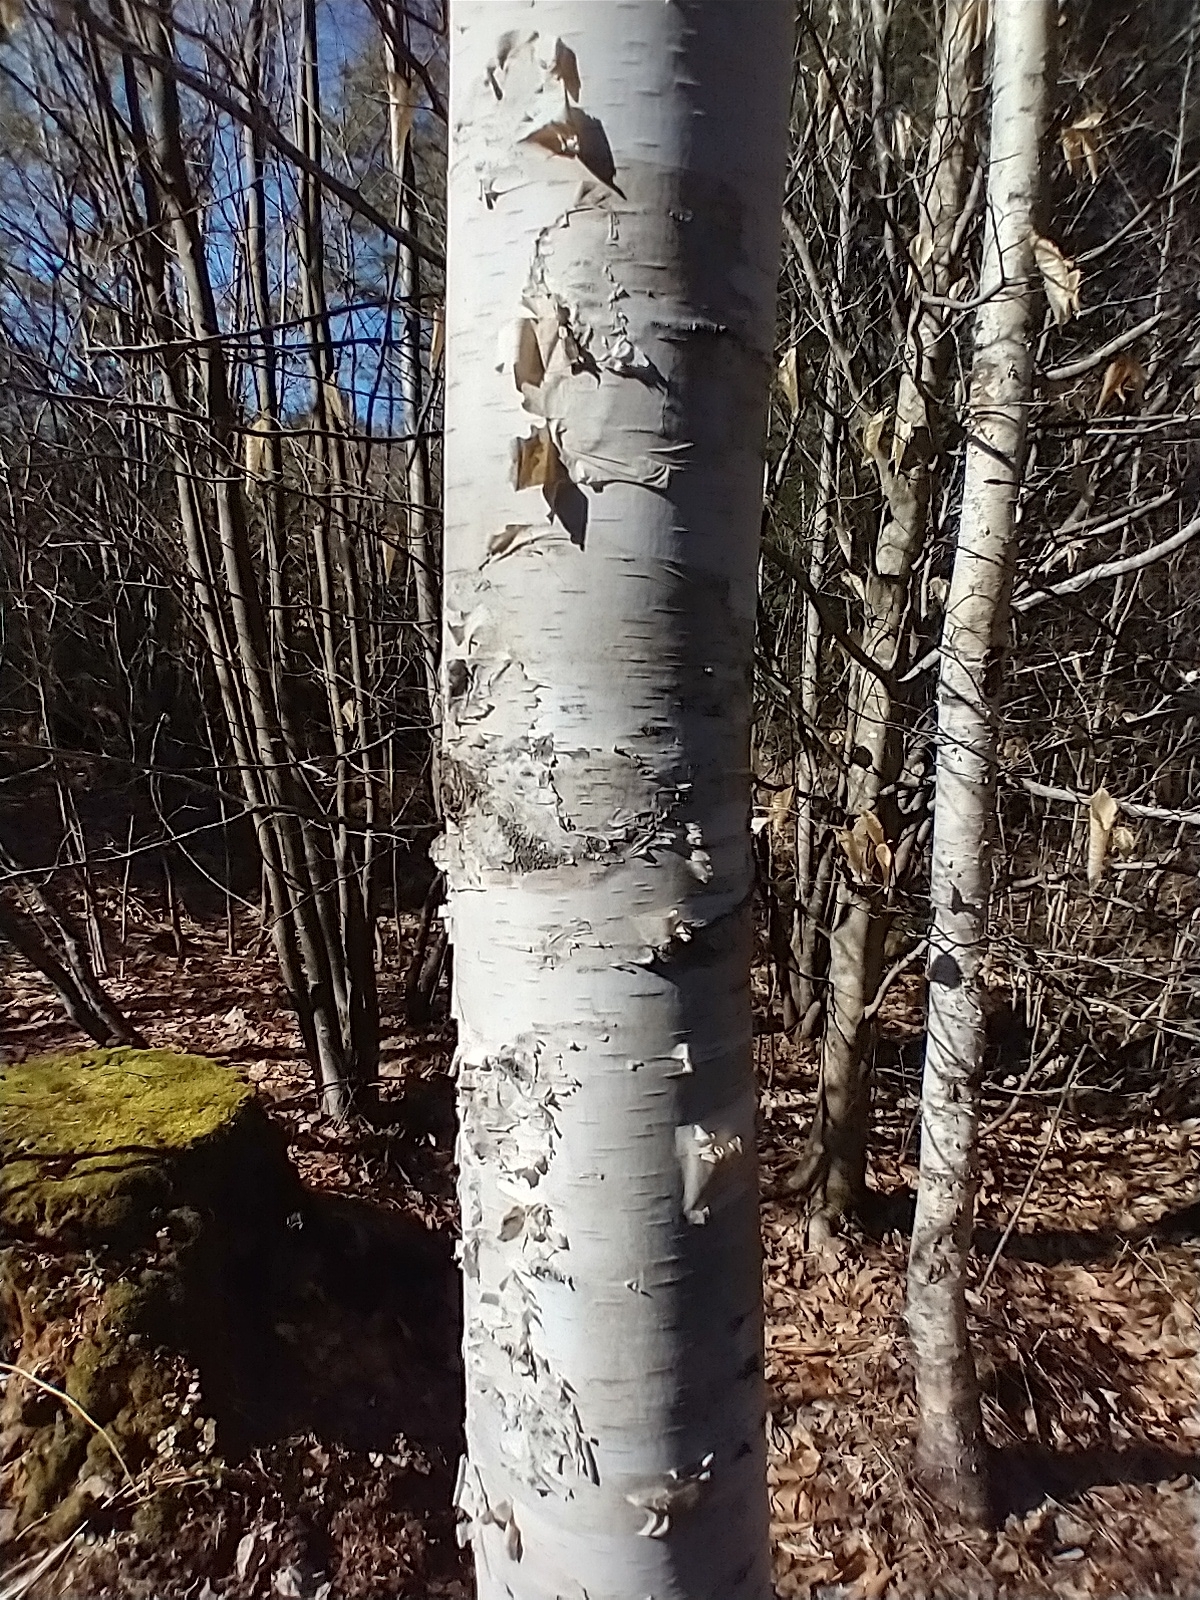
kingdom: Plantae
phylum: Tracheophyta
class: Magnoliopsida
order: Fagales
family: Betulaceae
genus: Betula
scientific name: Betula papyrifera
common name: Paper birch
